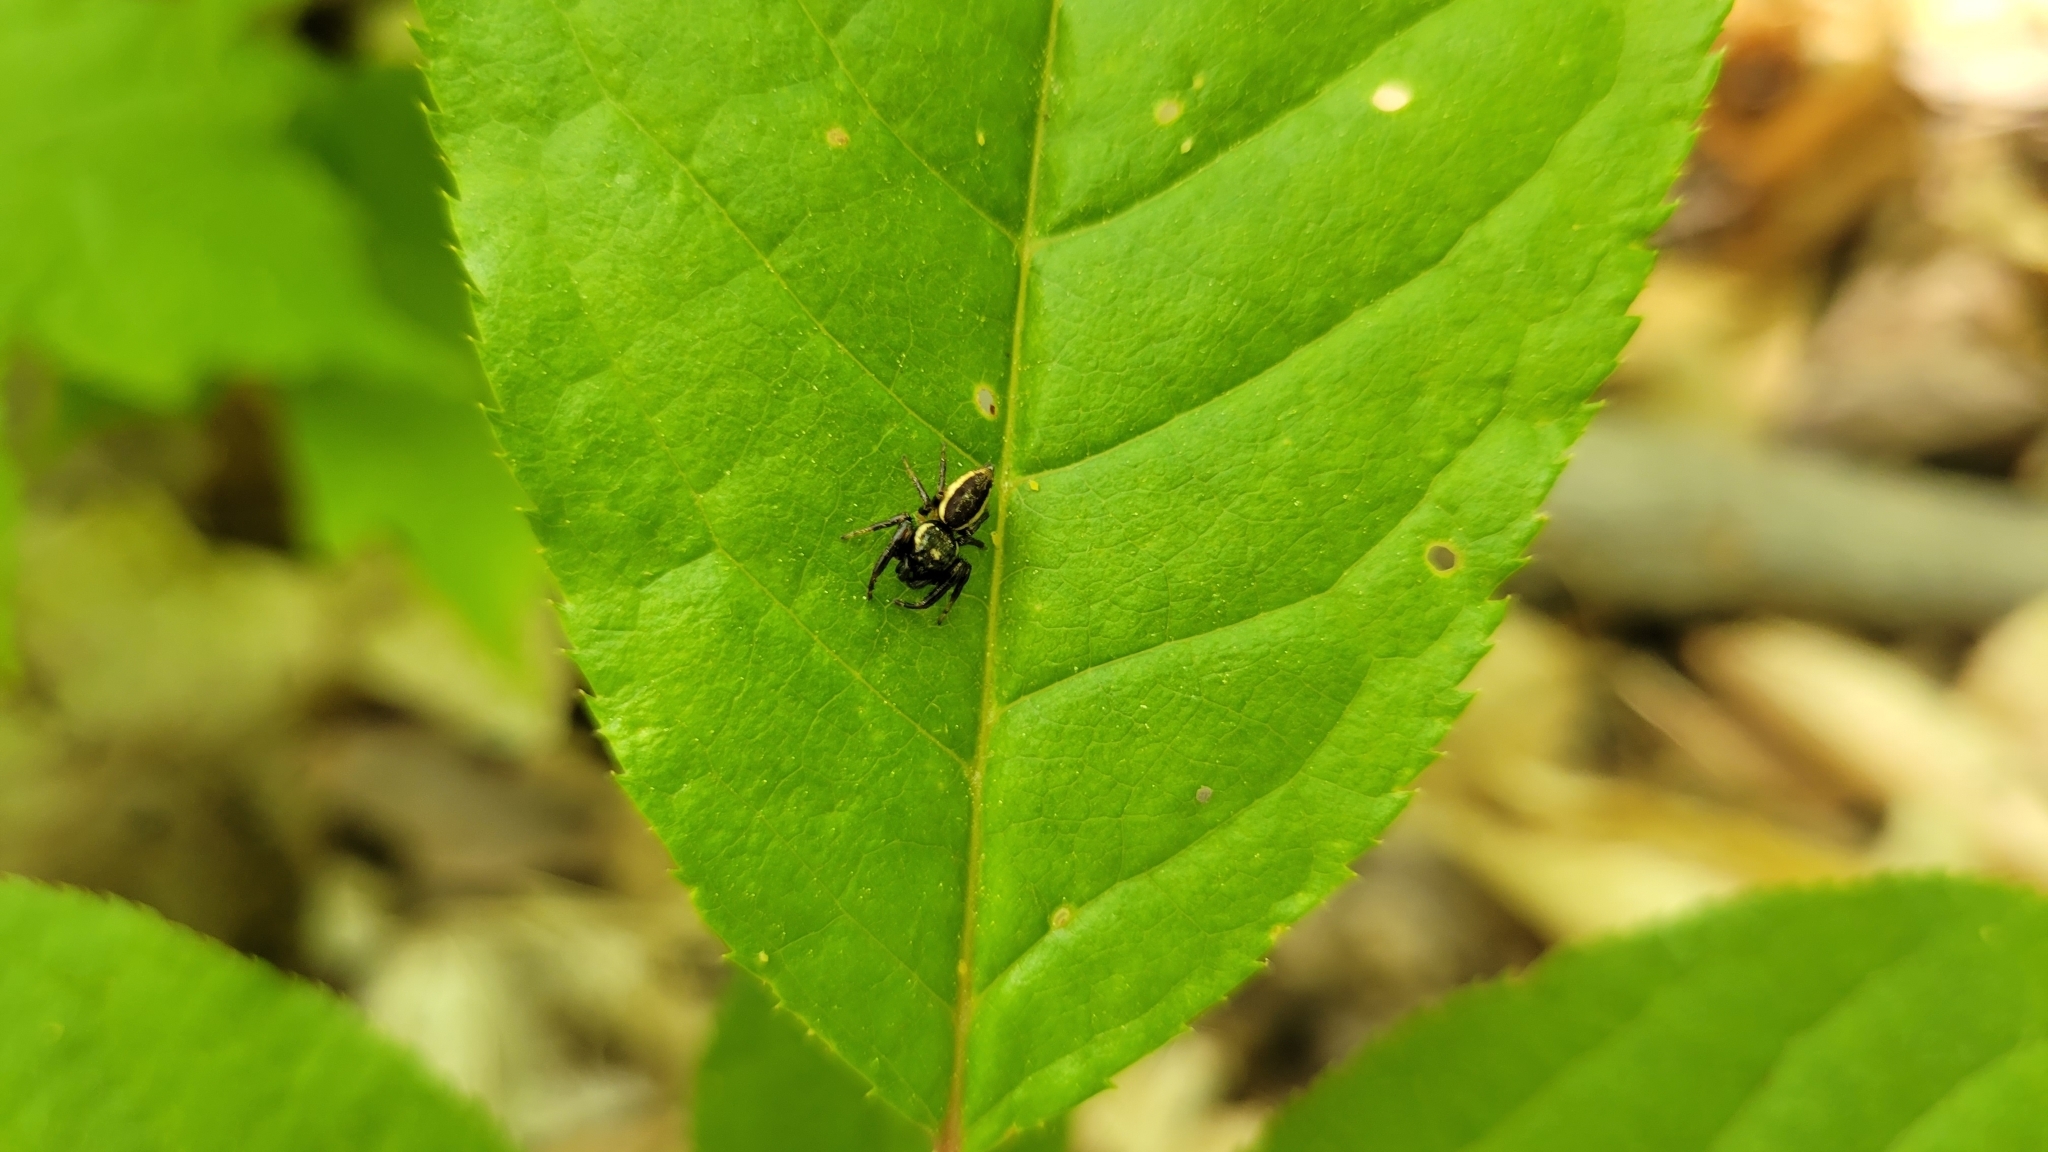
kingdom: Animalia
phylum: Arthropoda
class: Arachnida
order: Araneae
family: Salticidae
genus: Eris
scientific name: Eris militaris
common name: Bronze jumper
